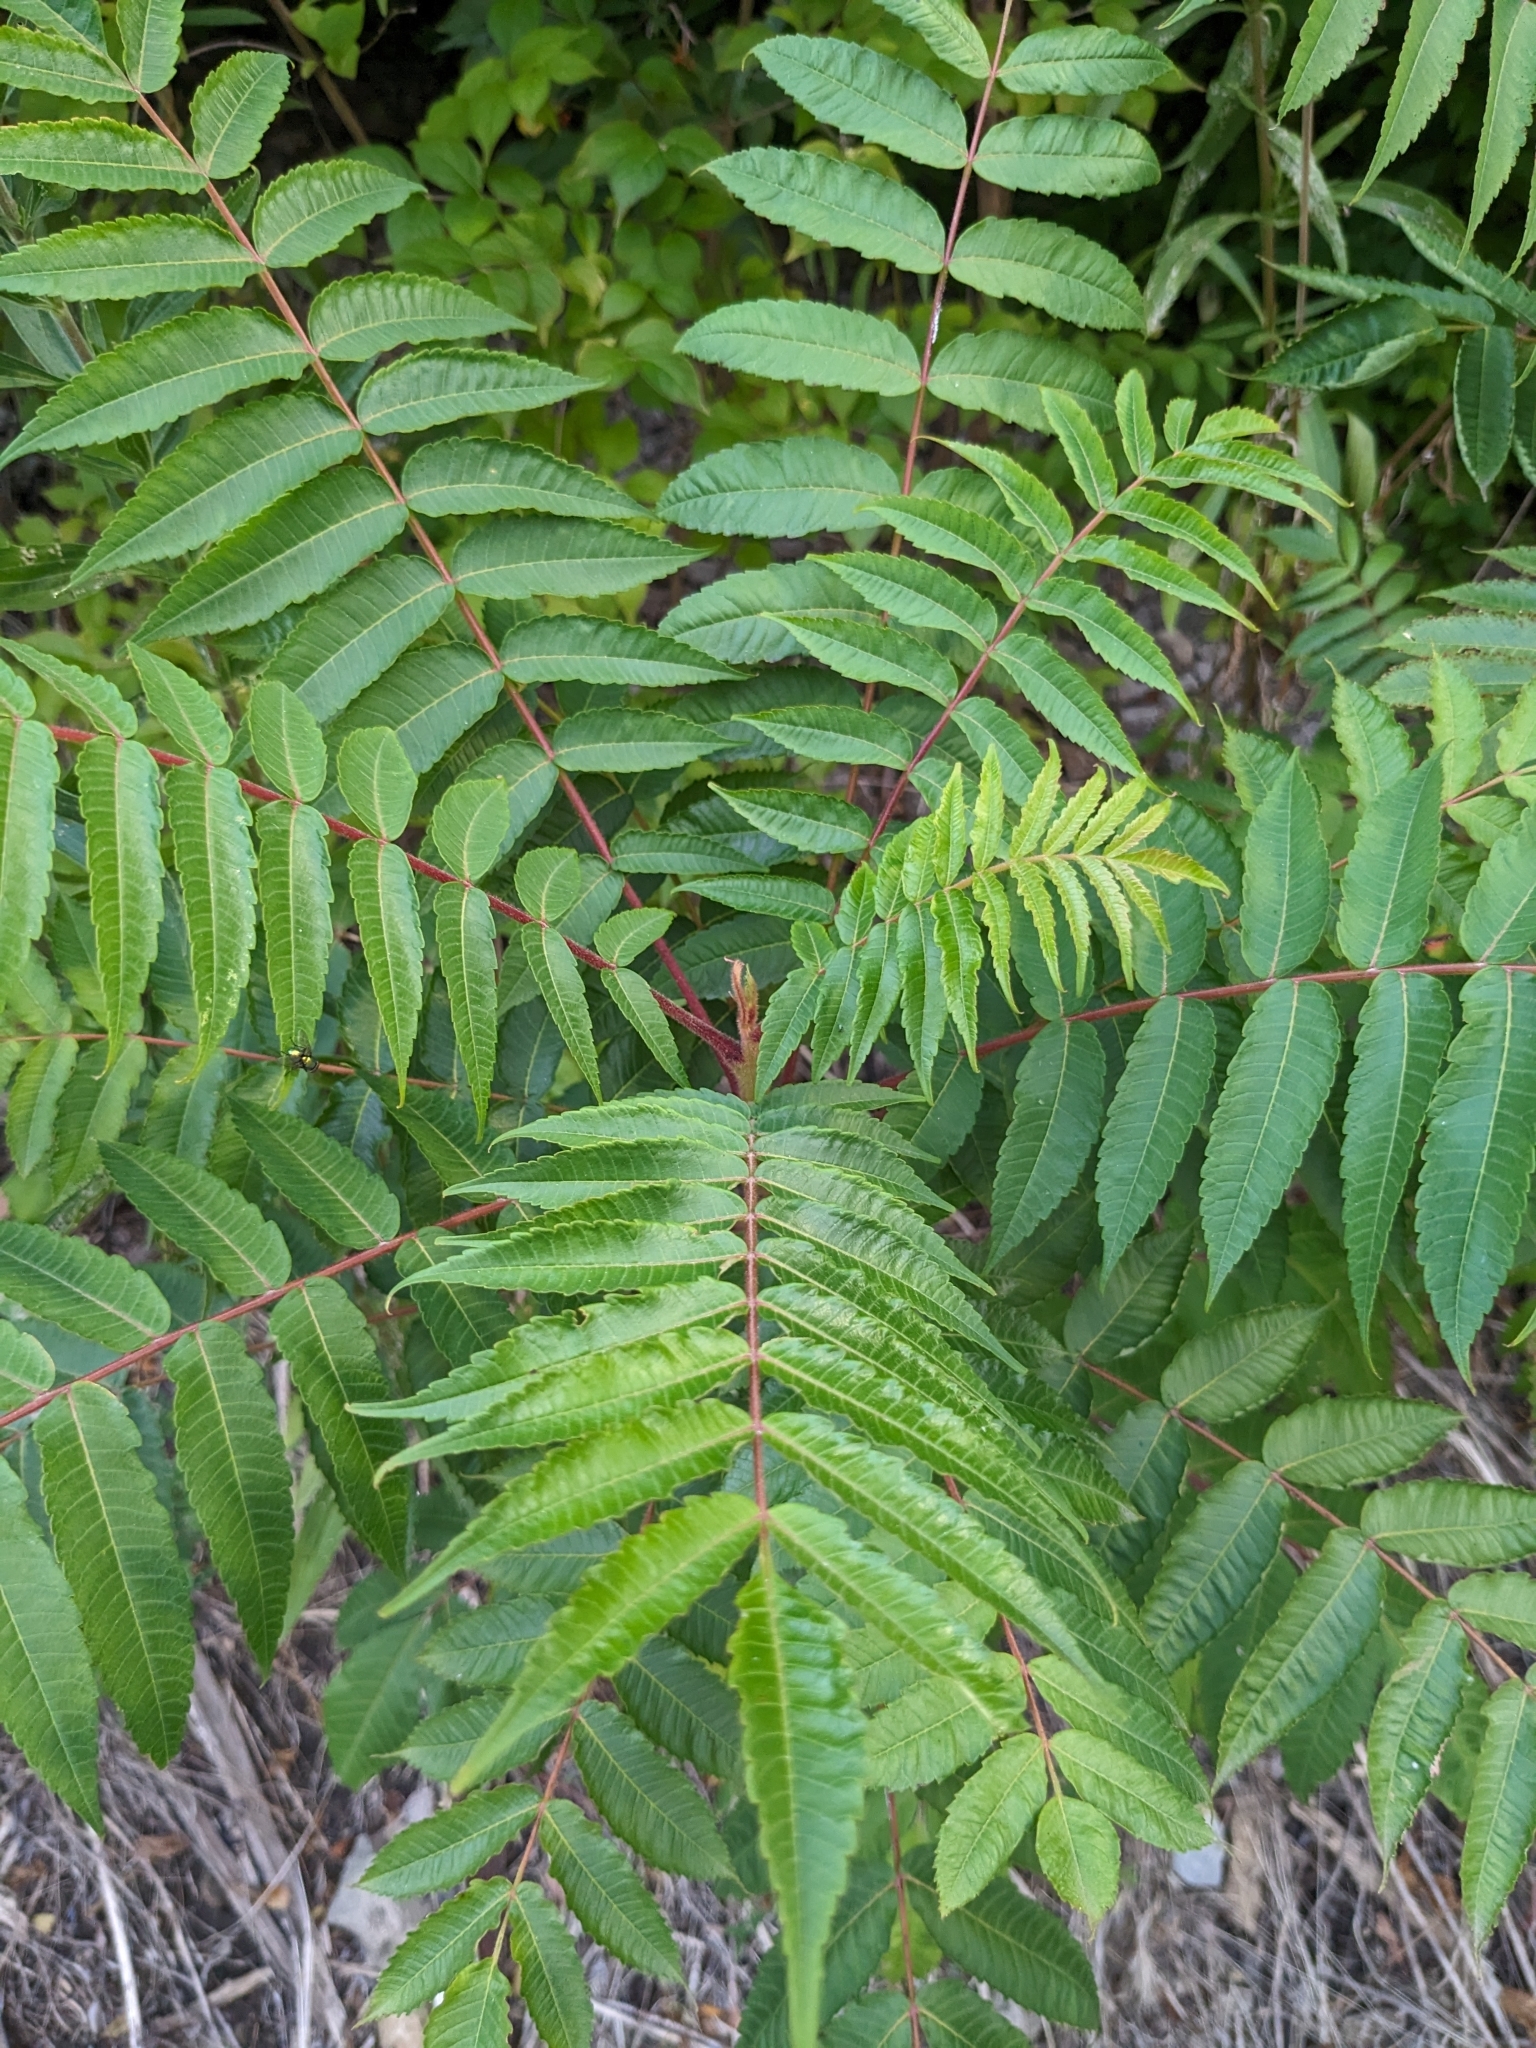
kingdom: Plantae
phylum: Tracheophyta
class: Magnoliopsida
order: Sapindales
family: Anacardiaceae
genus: Rhus
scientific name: Rhus typhina
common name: Staghorn sumac
